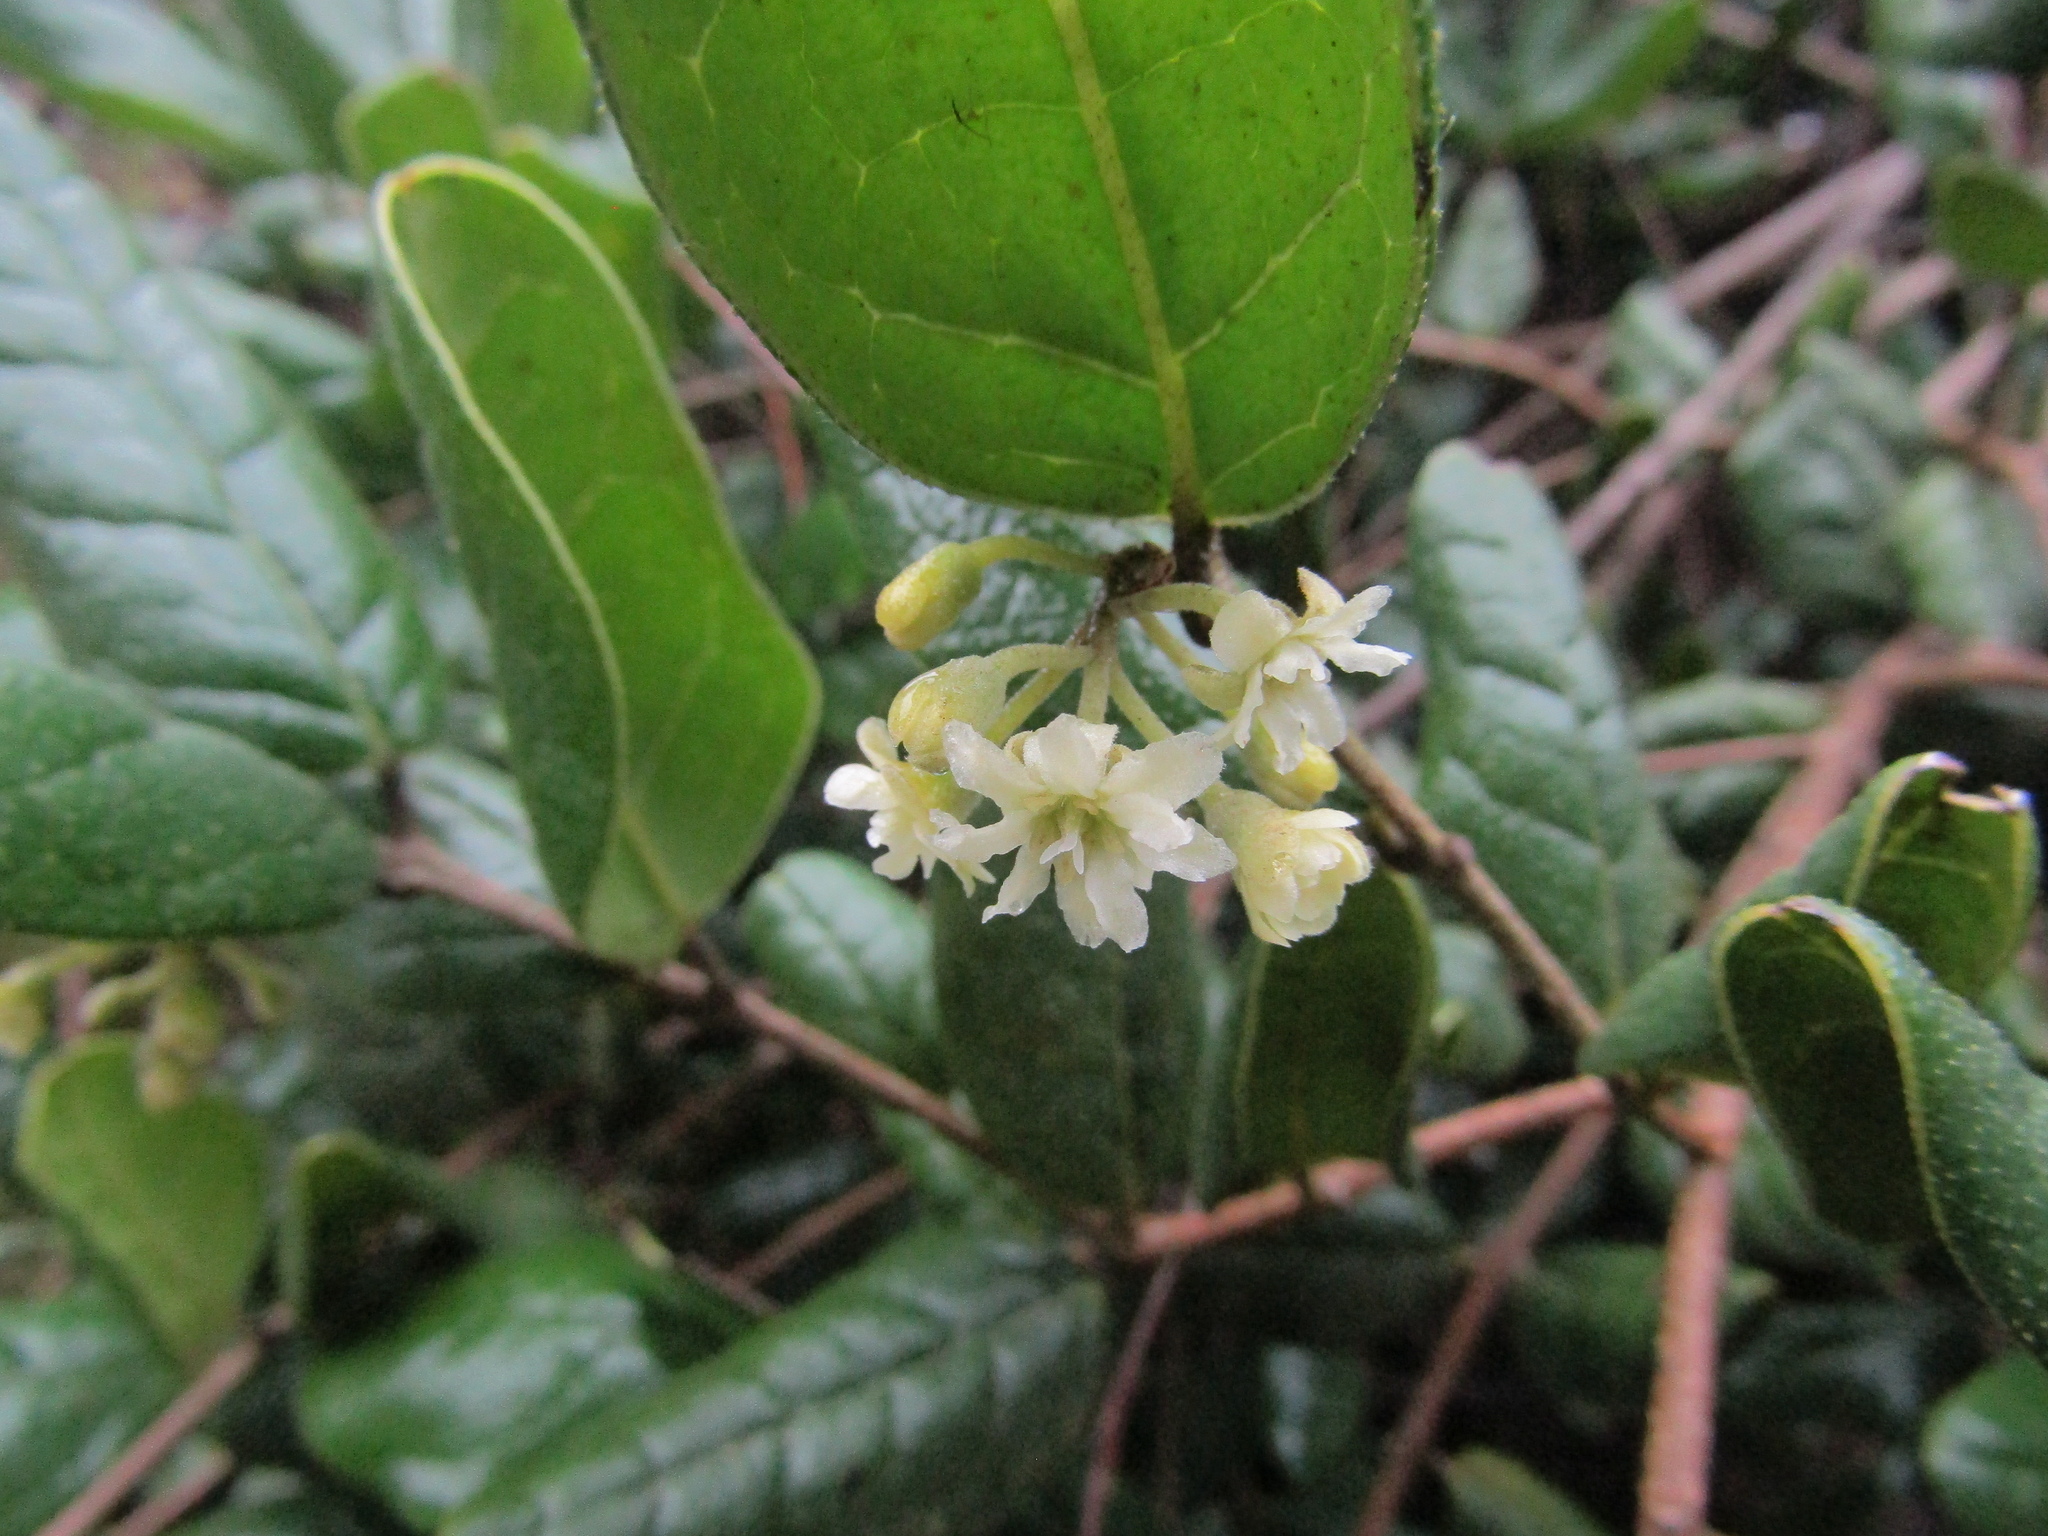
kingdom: Plantae
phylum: Tracheophyta
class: Magnoliopsida
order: Laurales
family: Monimiaceae
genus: Peumus
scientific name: Peumus boldus
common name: Boldo
